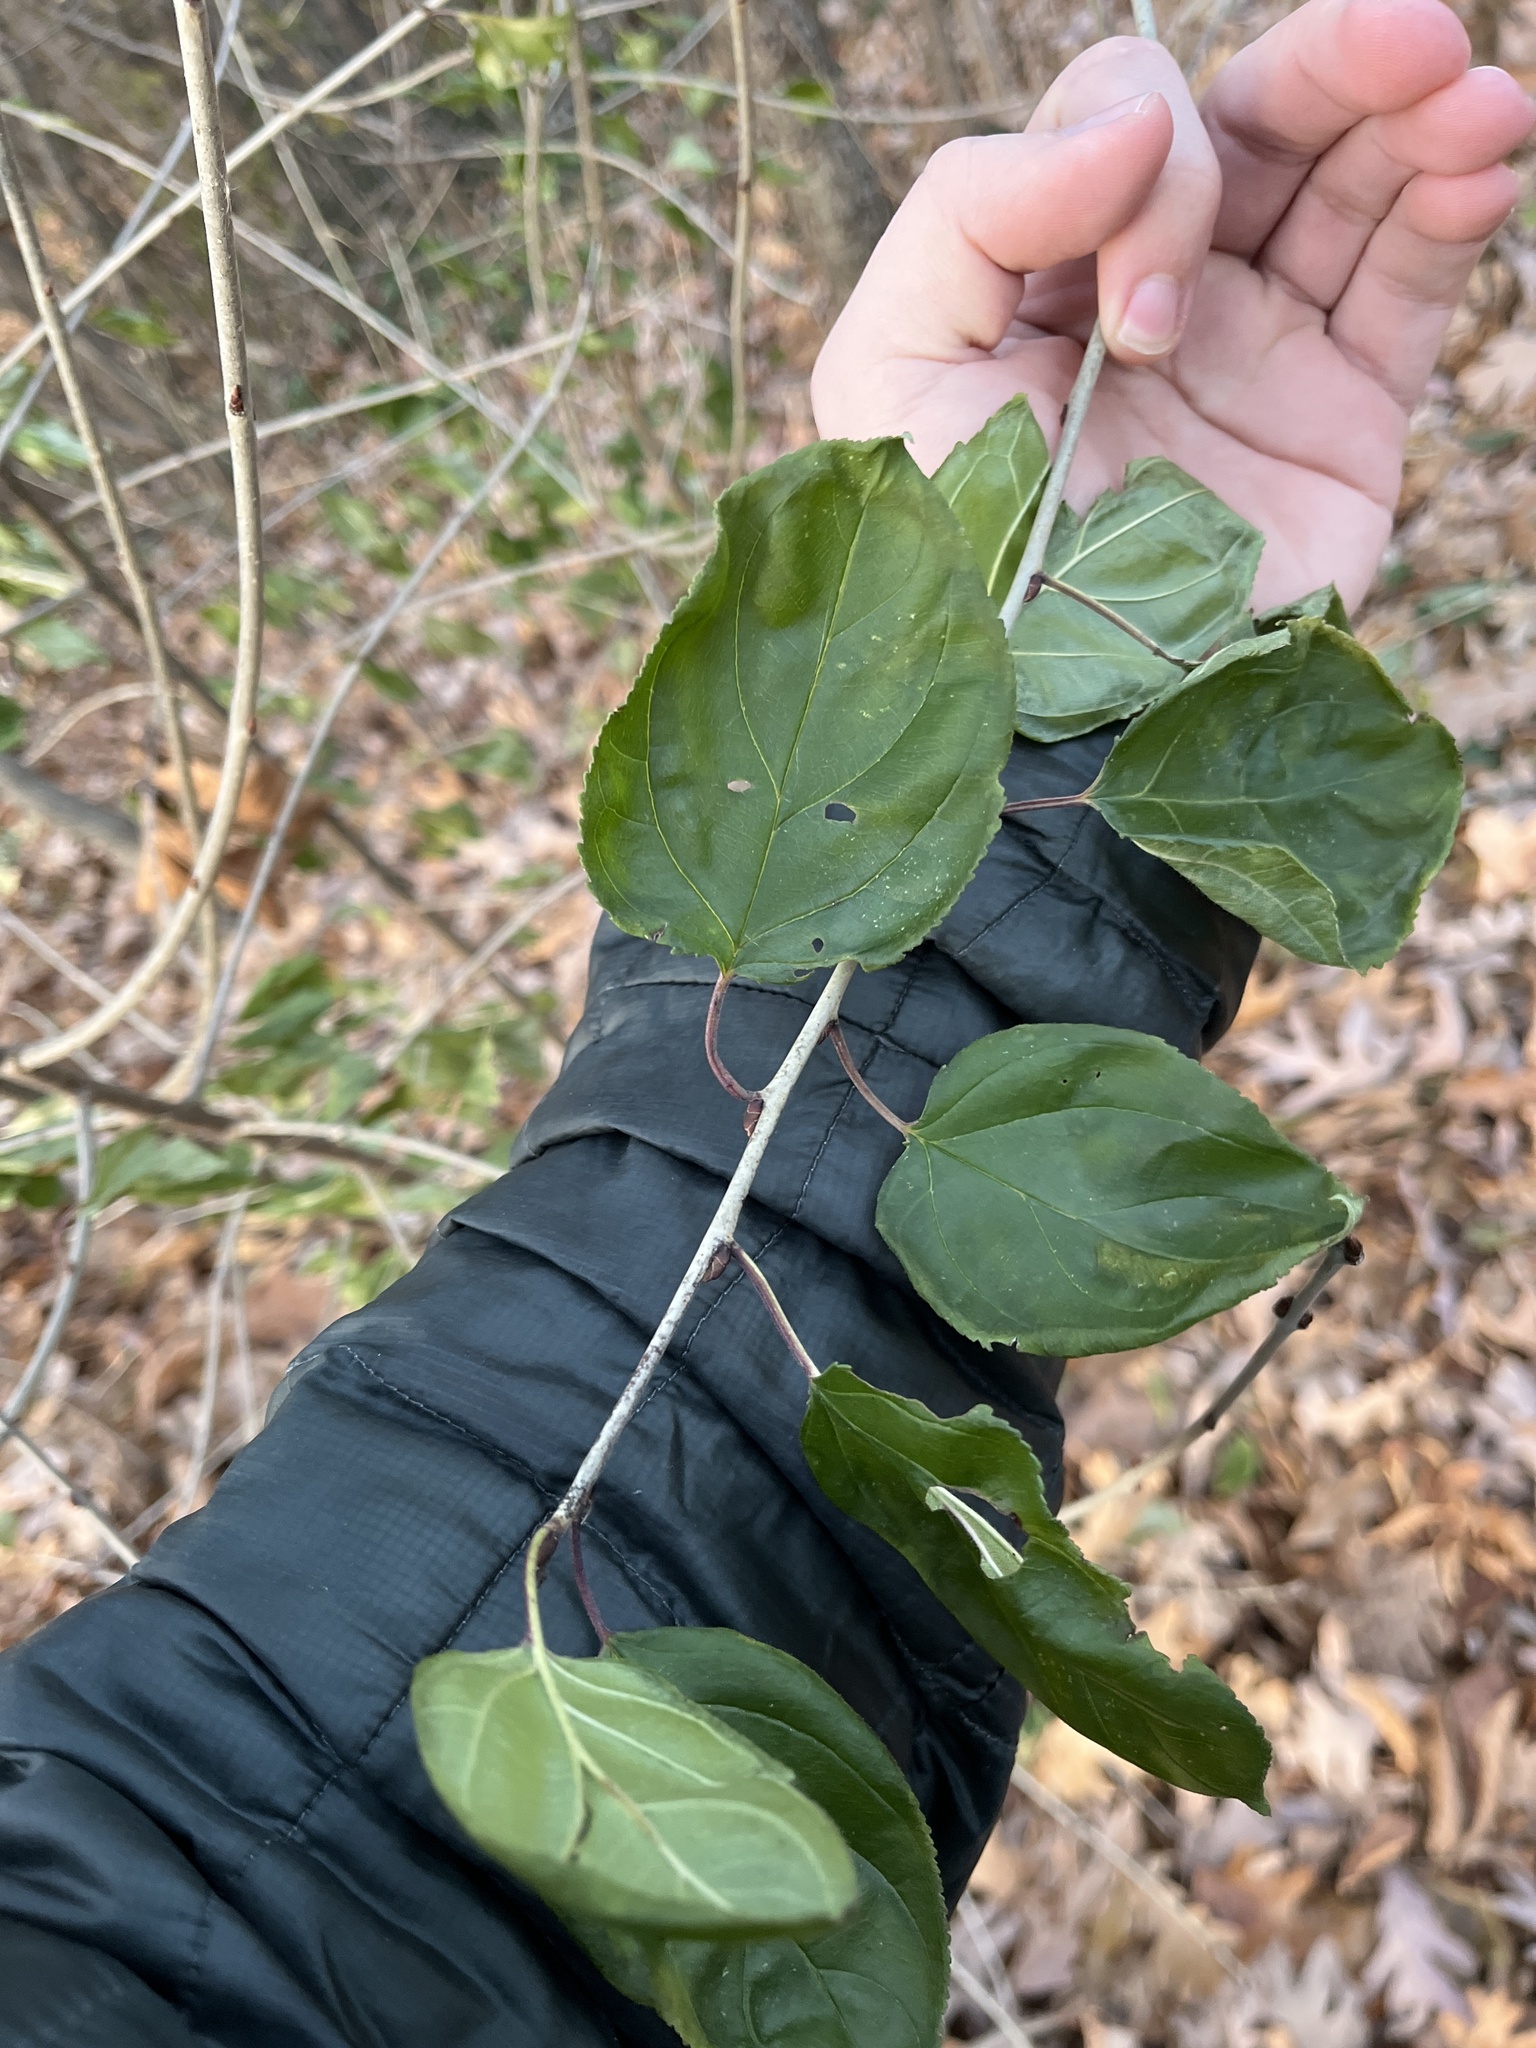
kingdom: Plantae
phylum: Tracheophyta
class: Magnoliopsida
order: Rosales
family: Rhamnaceae
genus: Rhamnus
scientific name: Rhamnus cathartica
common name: Common buckthorn
